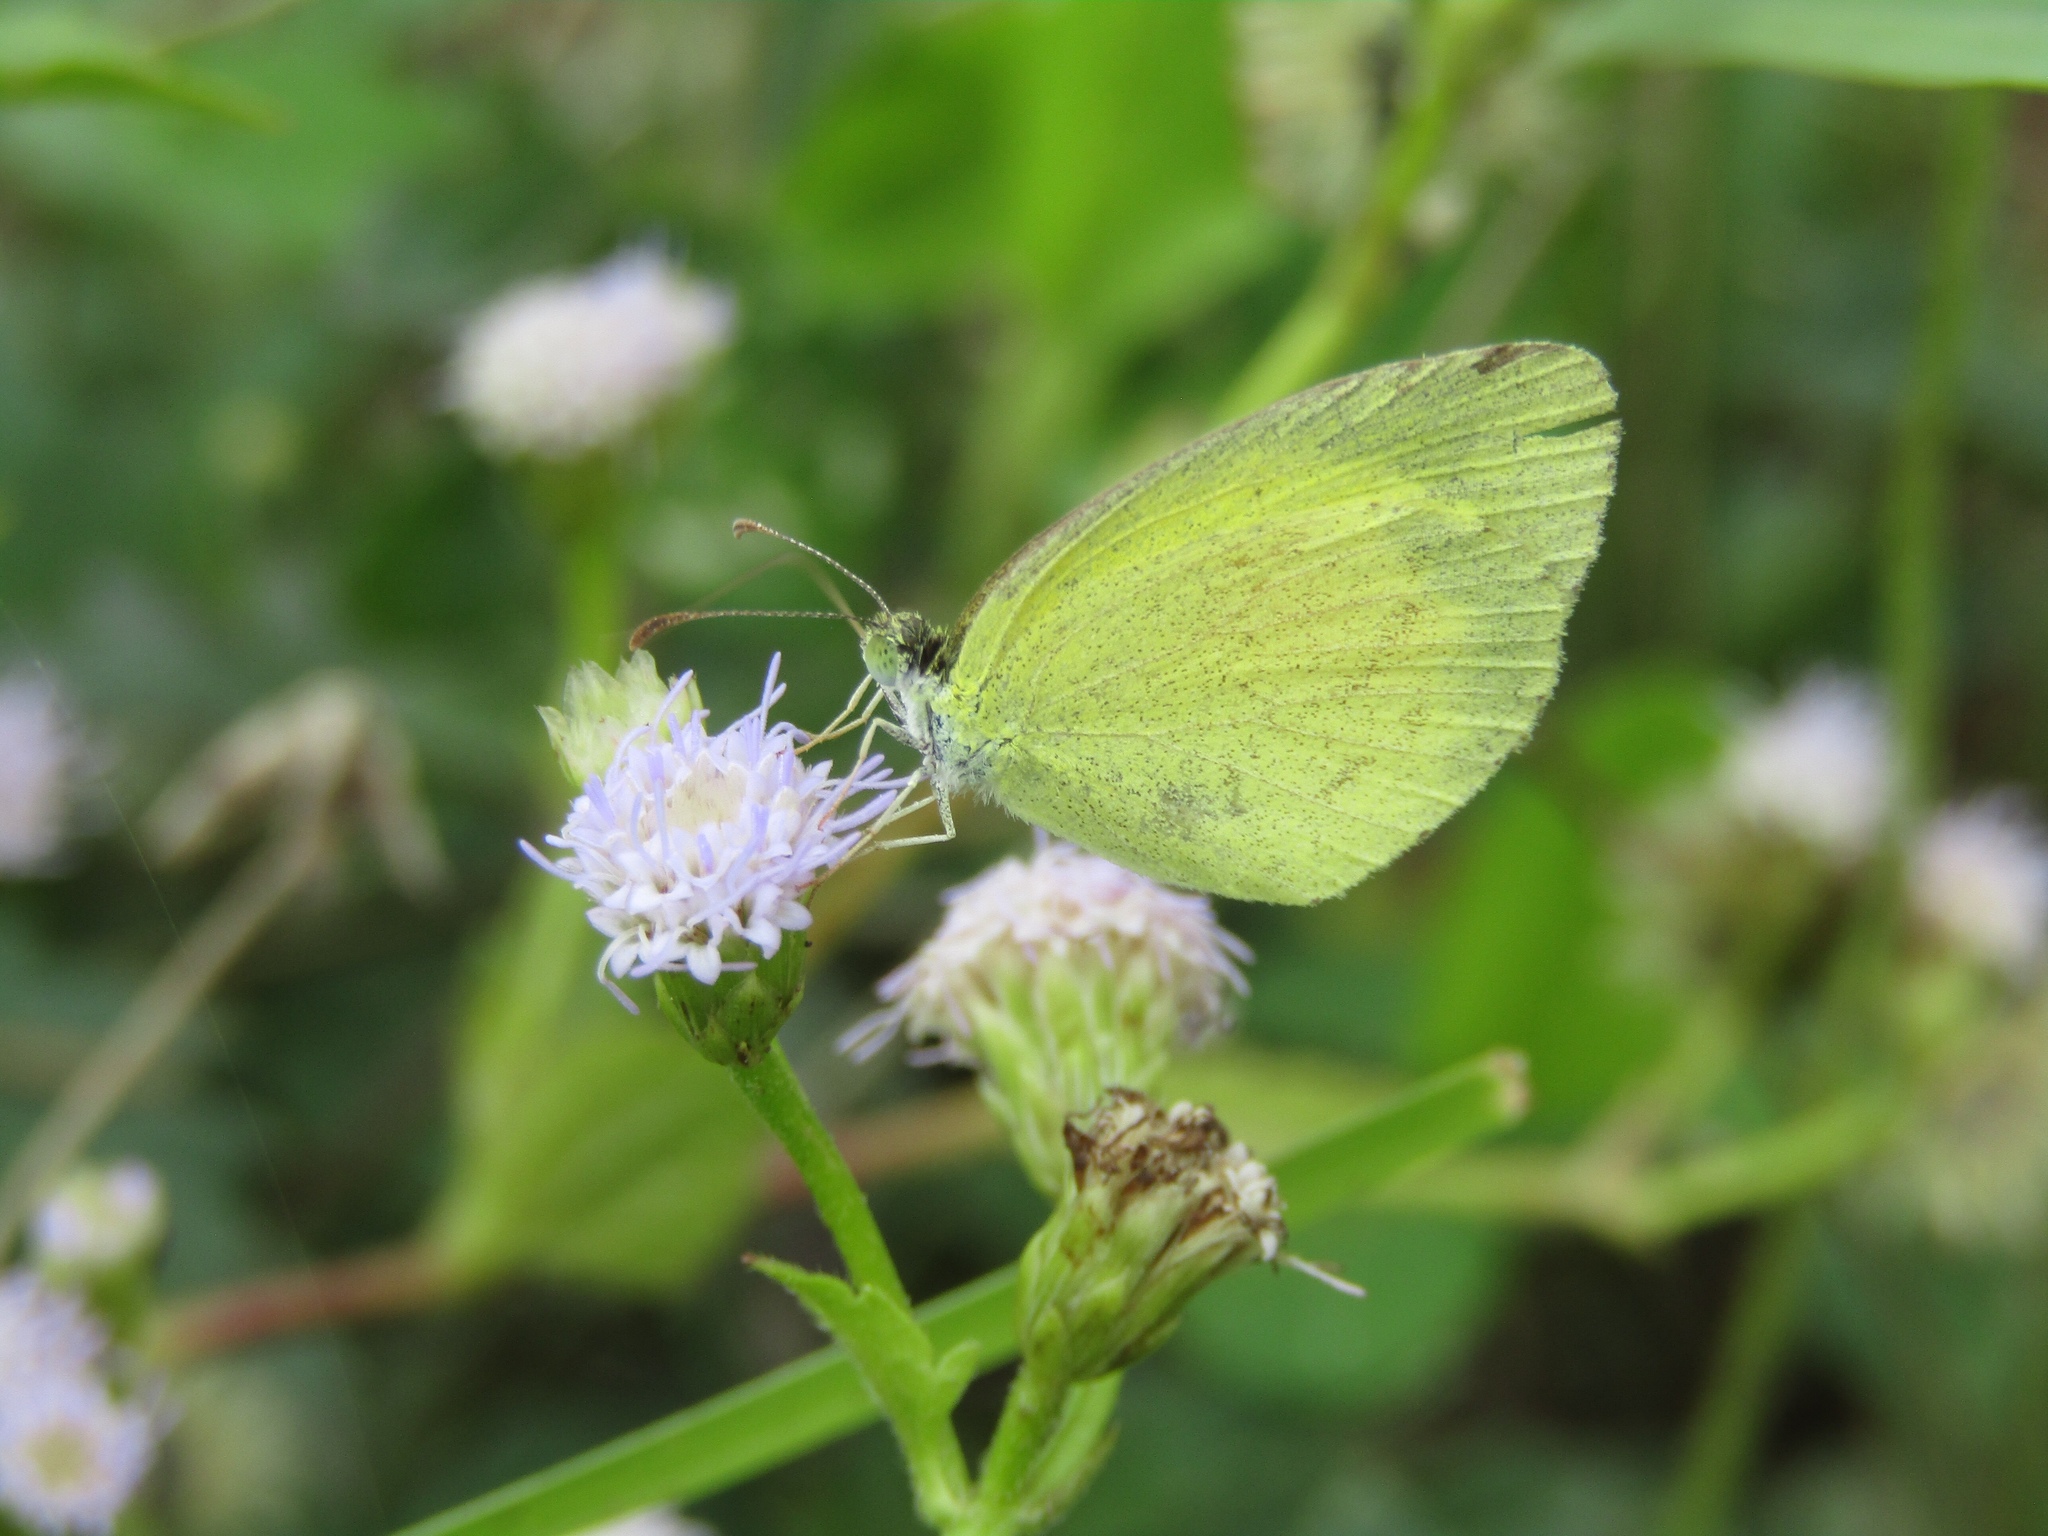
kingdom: Animalia
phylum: Arthropoda
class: Insecta
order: Lepidoptera
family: Pieridae
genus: Eurema
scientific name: Eurema brigitta
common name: Small grass yellow
